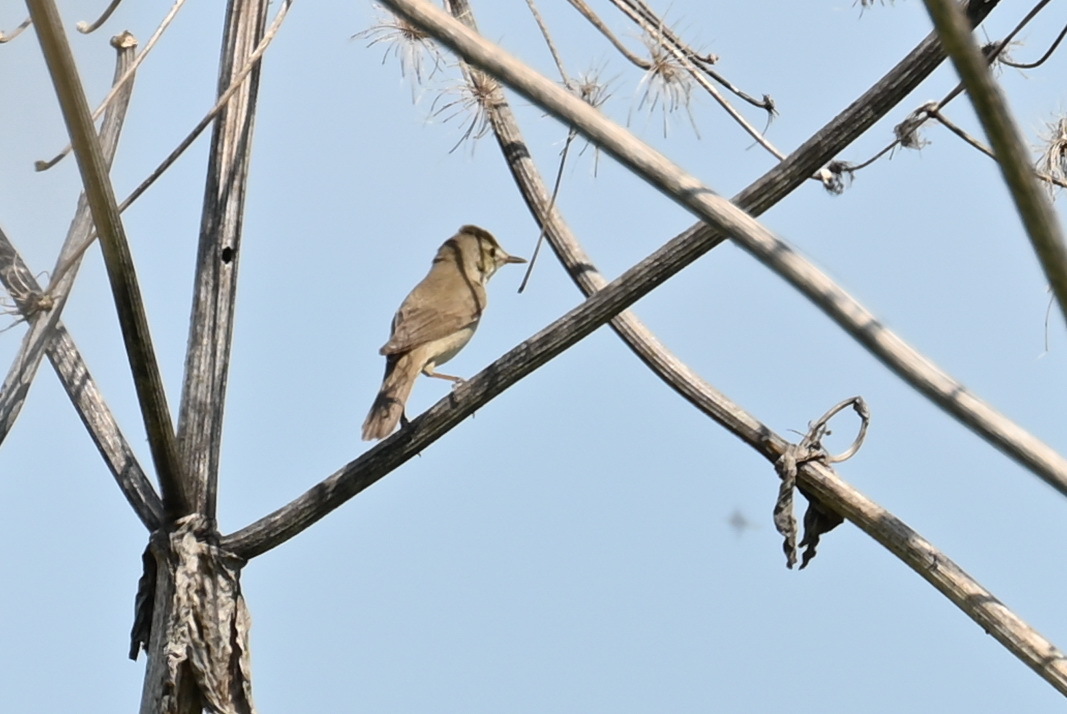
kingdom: Animalia
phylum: Chordata
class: Aves
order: Passeriformes
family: Acrocephalidae
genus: Acrocephalus
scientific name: Acrocephalus dumetorum
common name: Blyth's reed warbler
